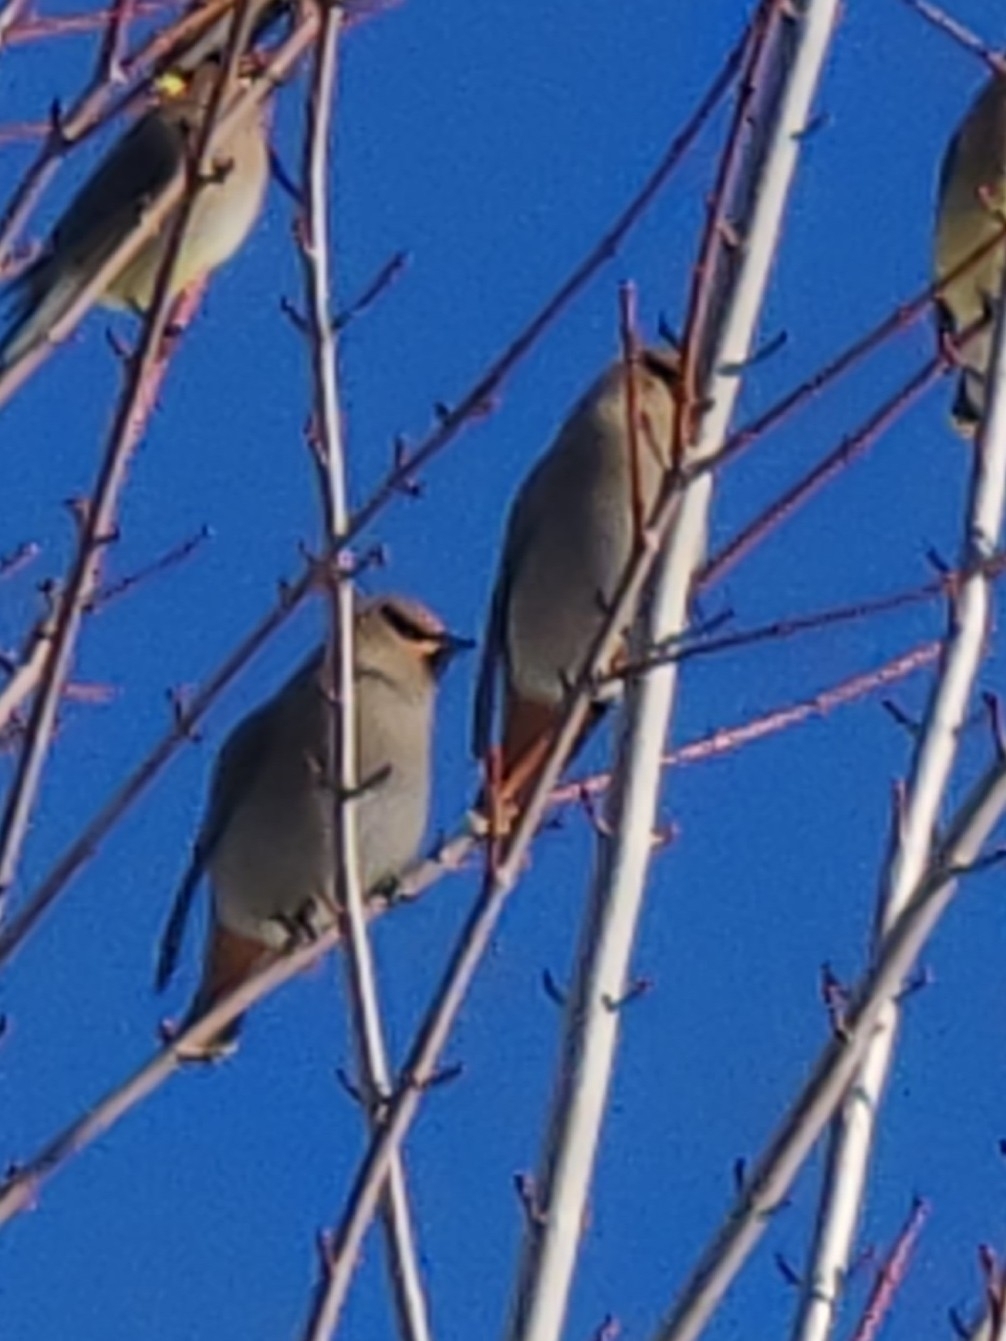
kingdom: Animalia
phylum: Chordata
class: Aves
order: Passeriformes
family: Bombycillidae
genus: Bombycilla
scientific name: Bombycilla garrulus
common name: Bohemian waxwing
